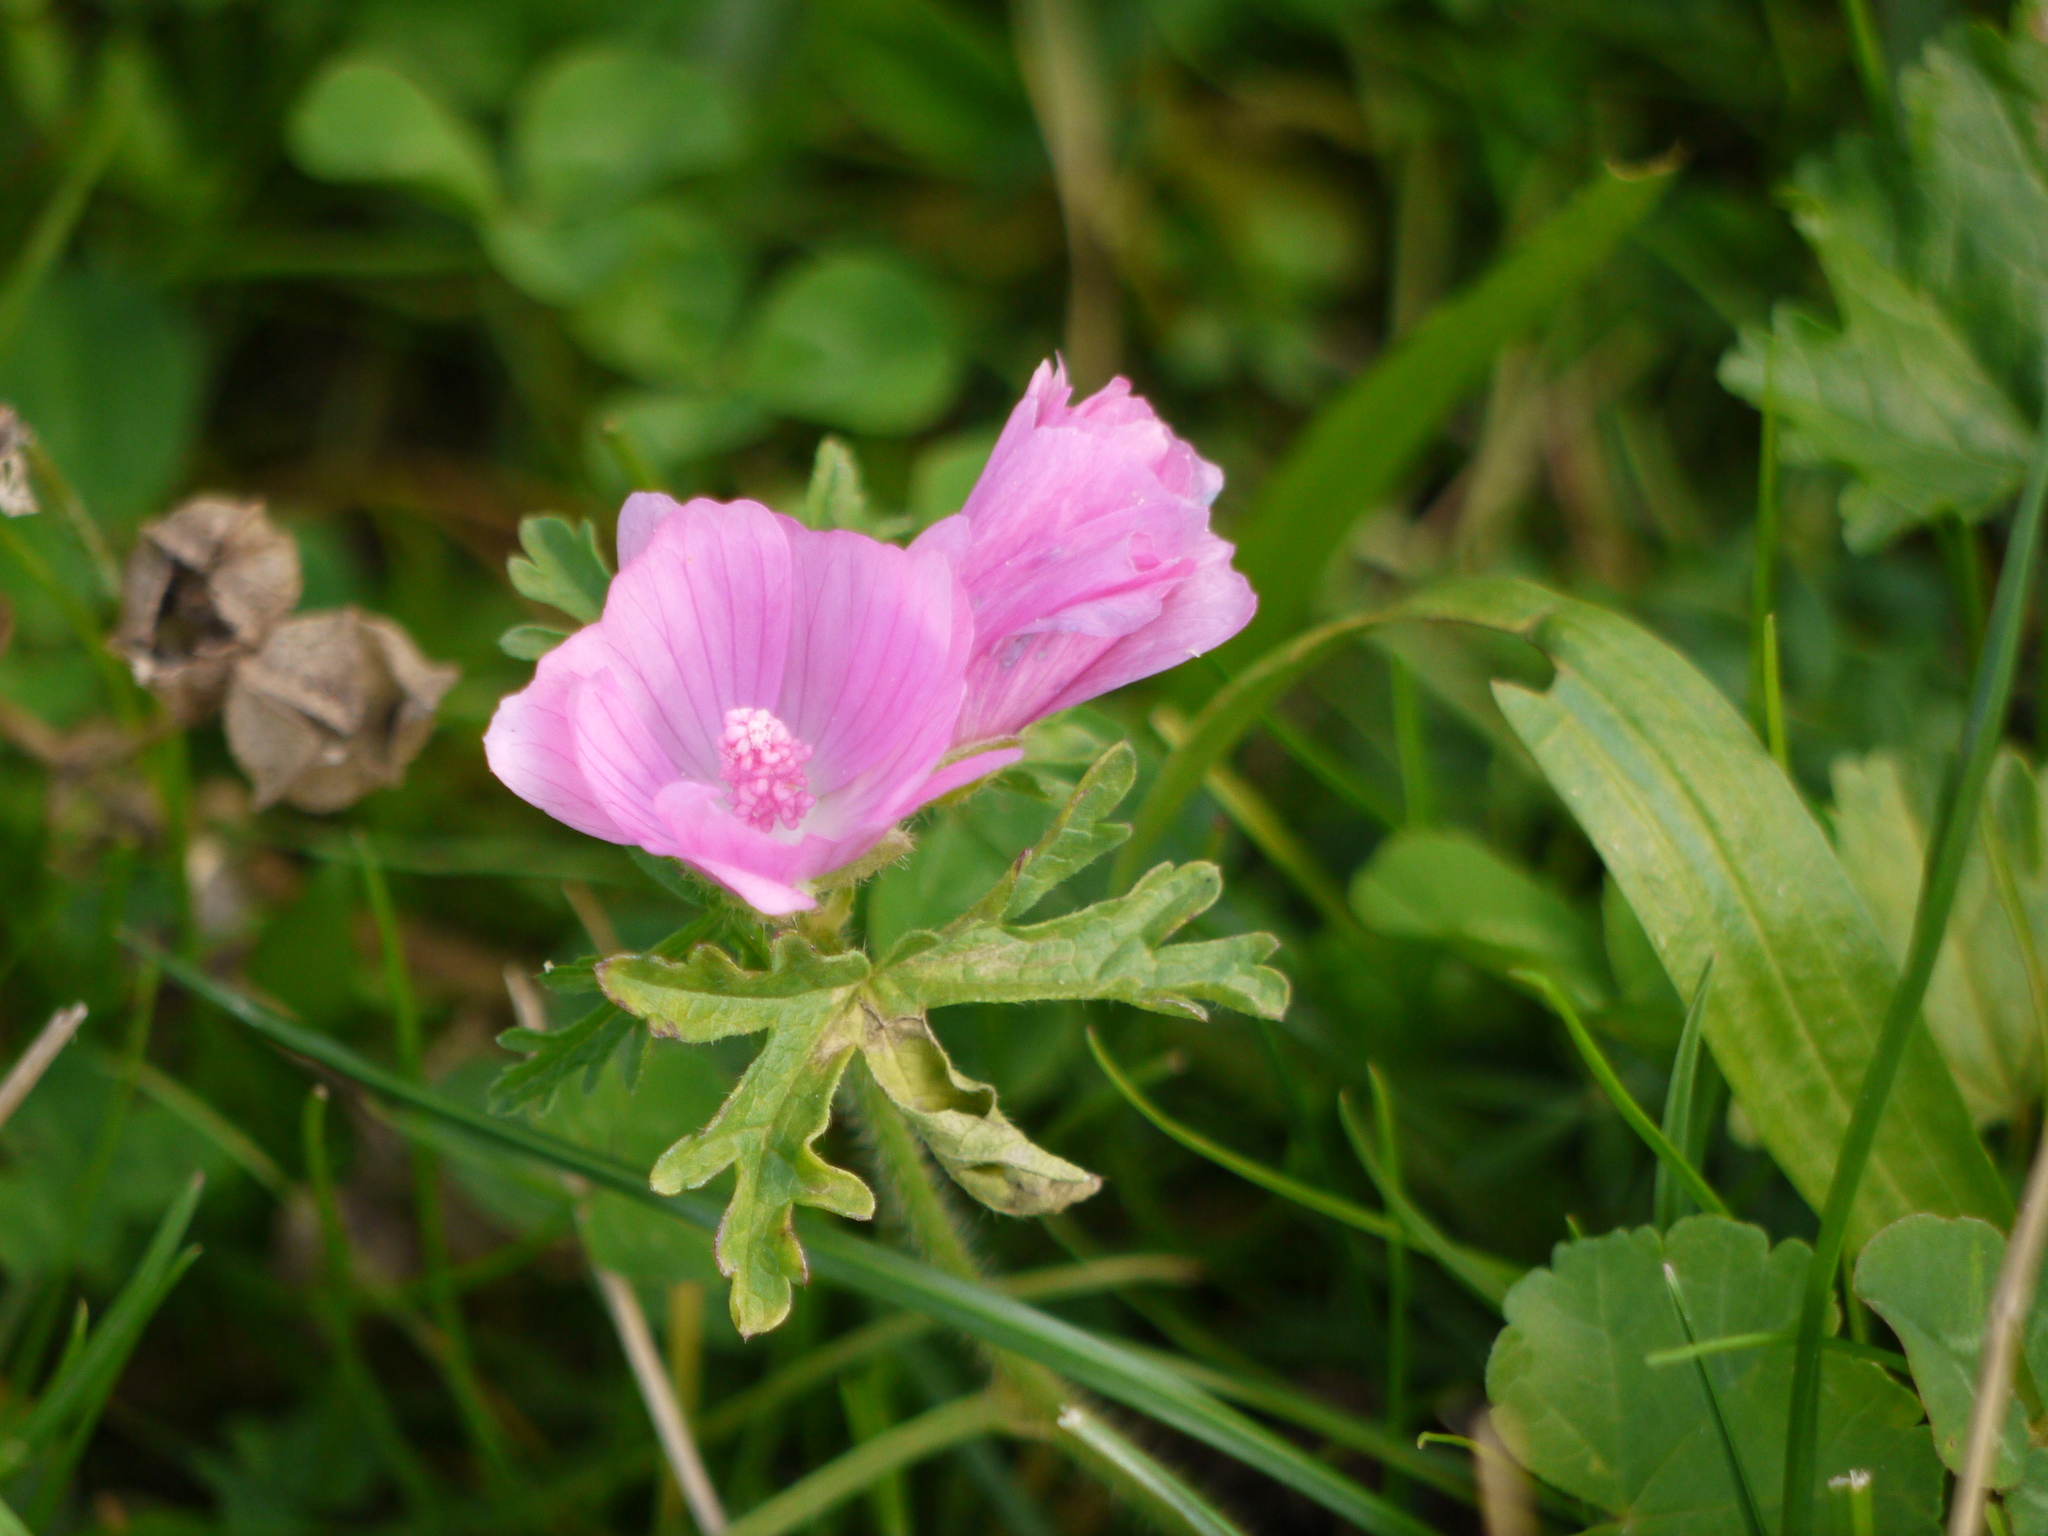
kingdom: Plantae
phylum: Tracheophyta
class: Magnoliopsida
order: Malvales
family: Malvaceae
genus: Malva
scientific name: Malva moschata
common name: Musk mallow
